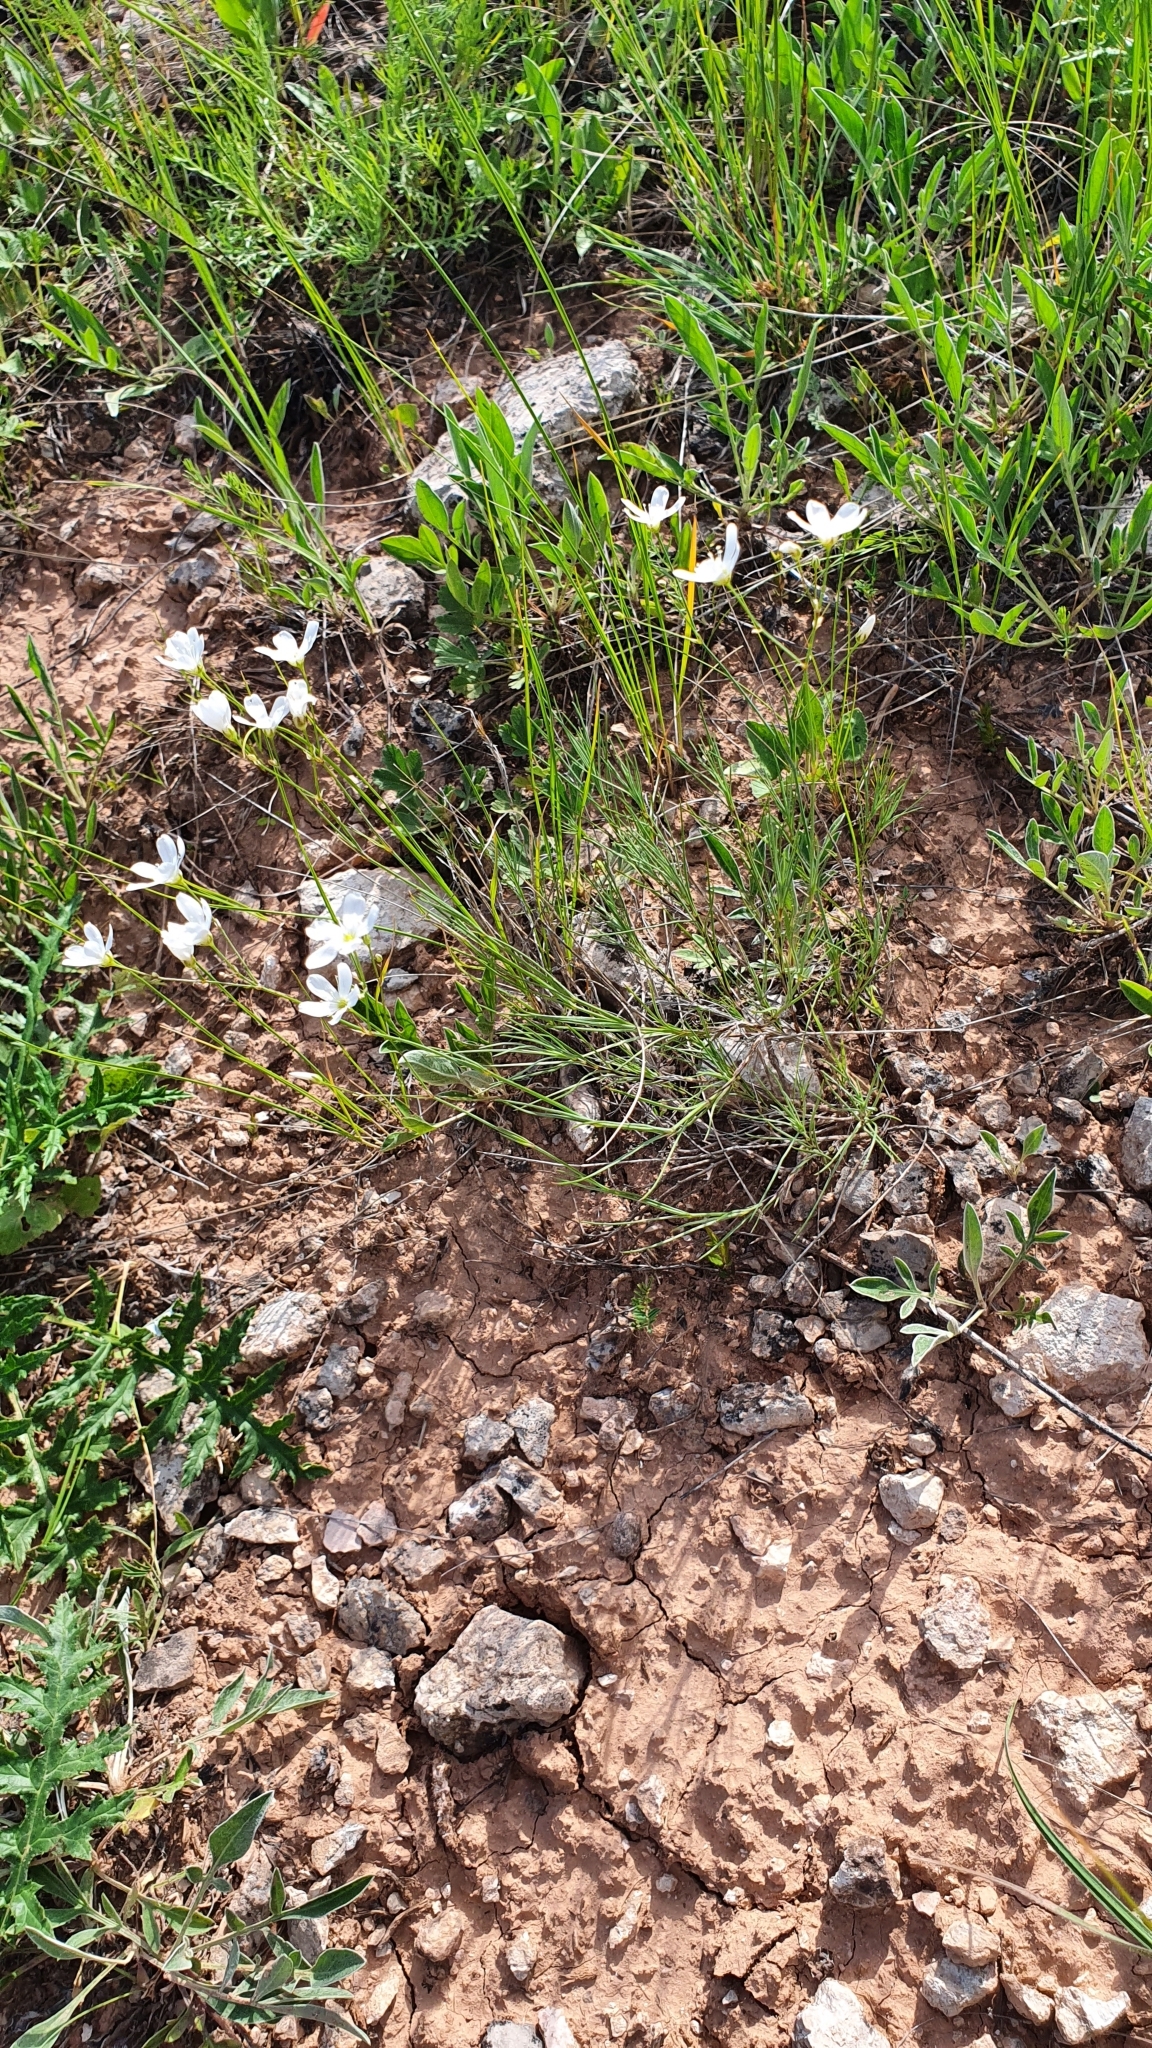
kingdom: Plantae
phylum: Tracheophyta
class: Magnoliopsida
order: Caryophyllales
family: Caryophyllaceae
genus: Eremogone
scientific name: Eremogone saxatilis
